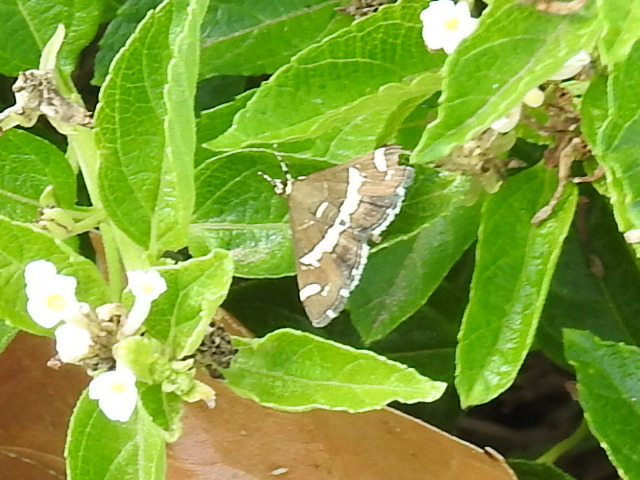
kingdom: Animalia
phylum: Arthropoda
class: Insecta
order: Lepidoptera
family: Crambidae
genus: Spoladea
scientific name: Spoladea recurvalis
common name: Beet webworm moth
